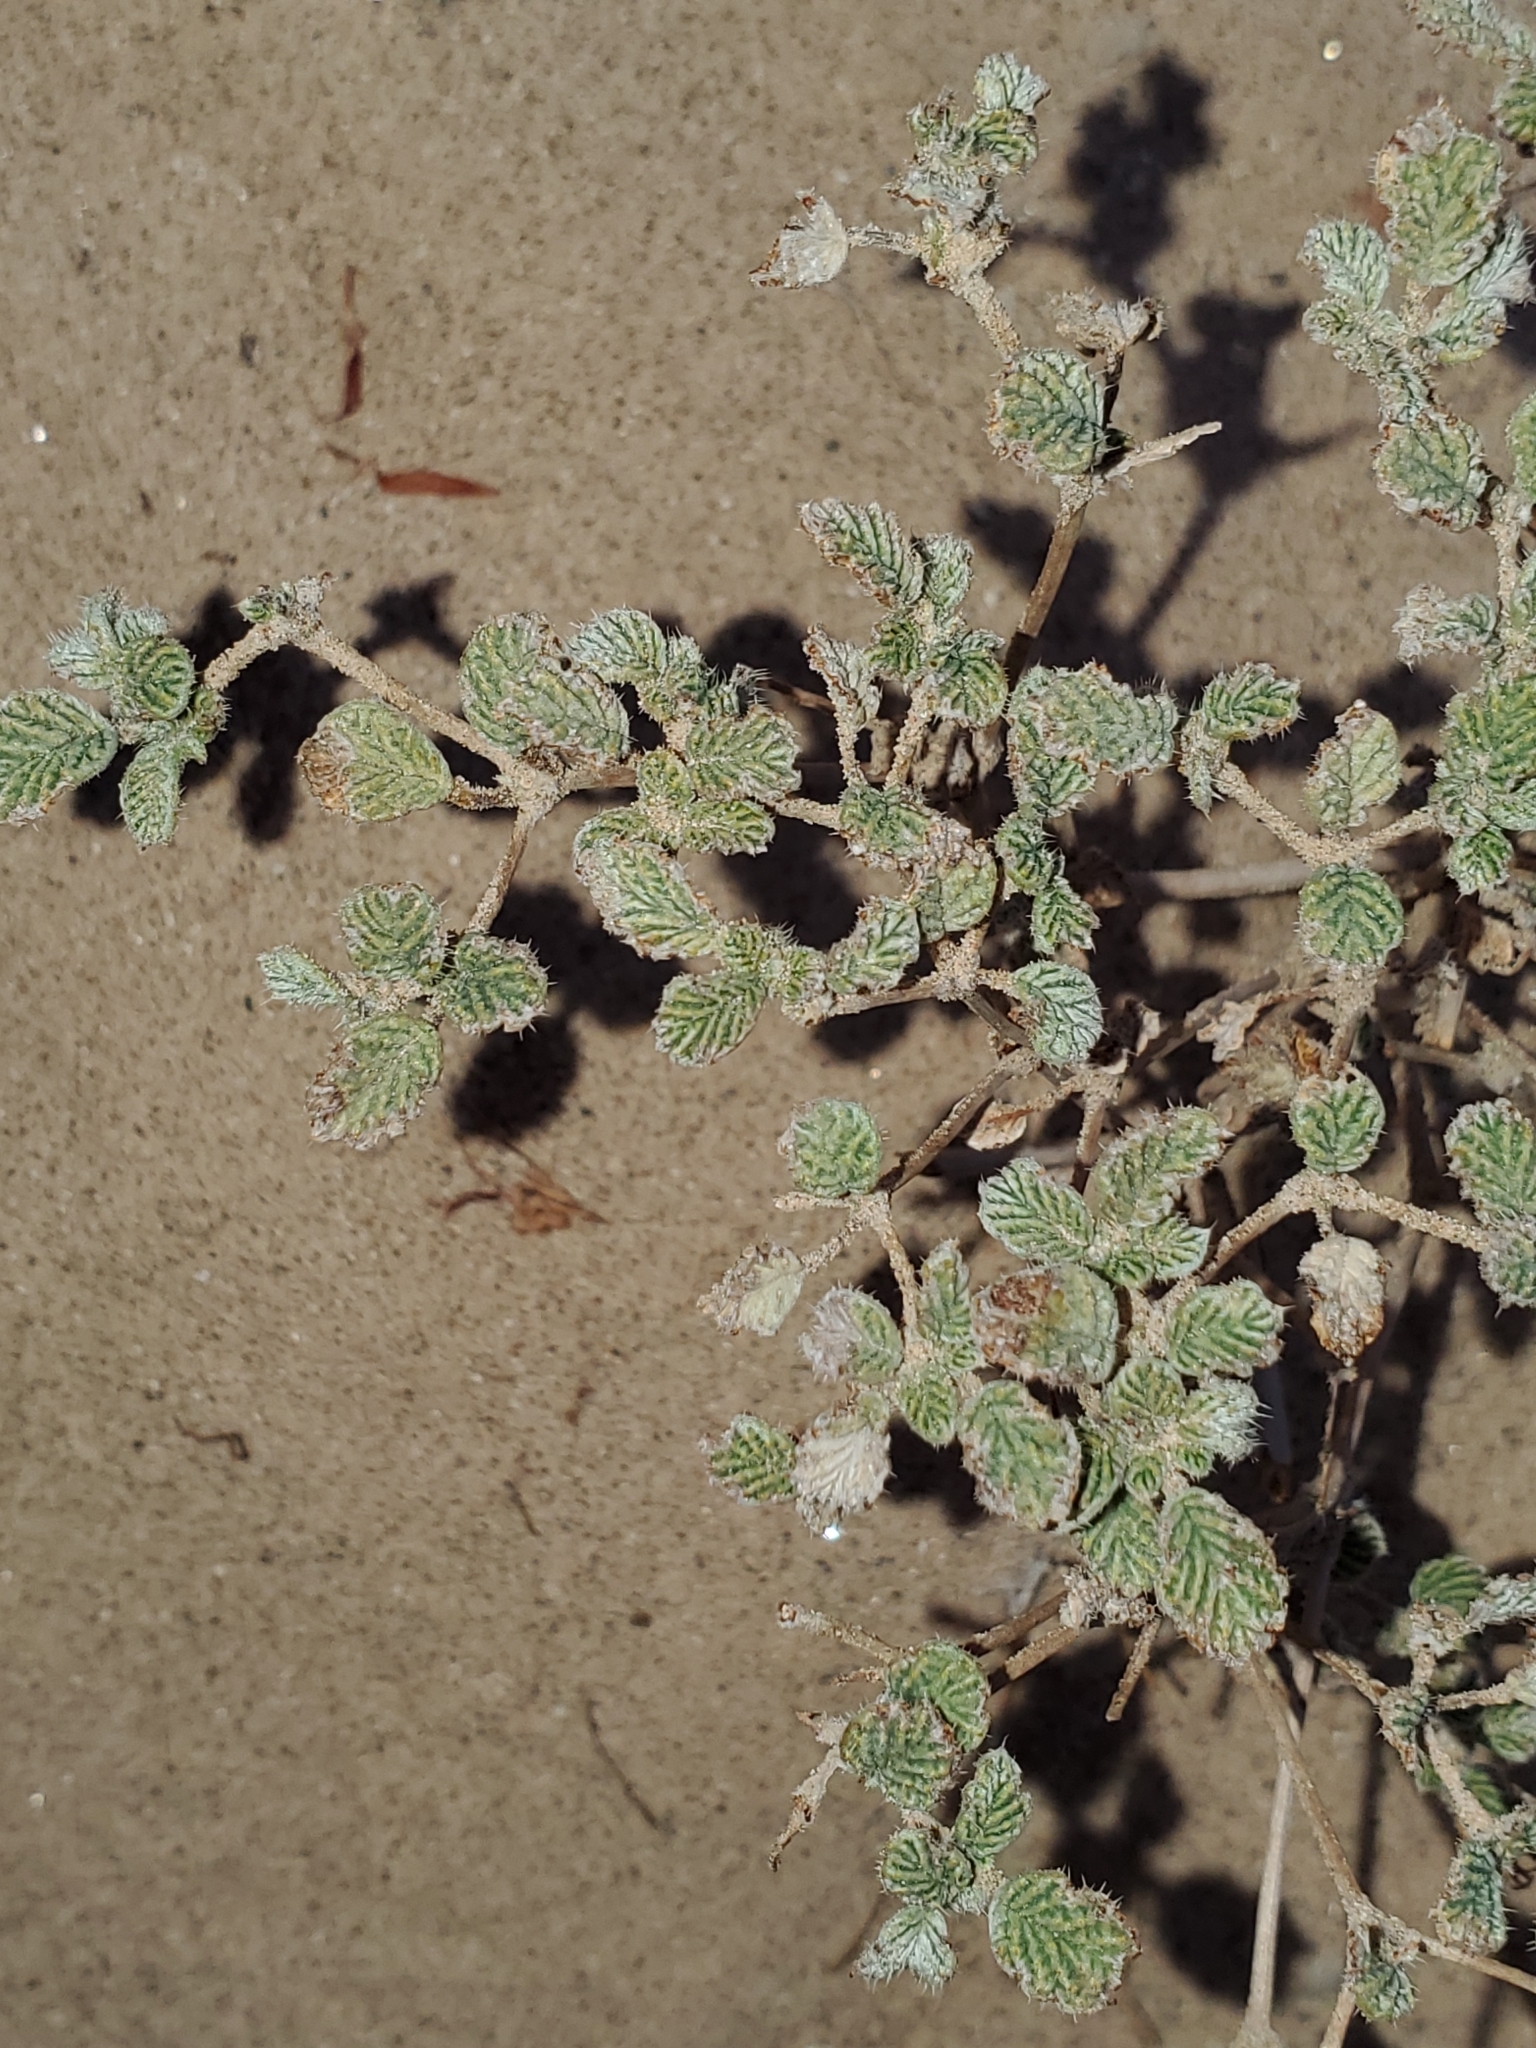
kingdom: Plantae
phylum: Tracheophyta
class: Magnoliopsida
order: Boraginales
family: Ehretiaceae
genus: Tiquilia
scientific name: Tiquilia plicata
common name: Fan-leaf tiquilia
